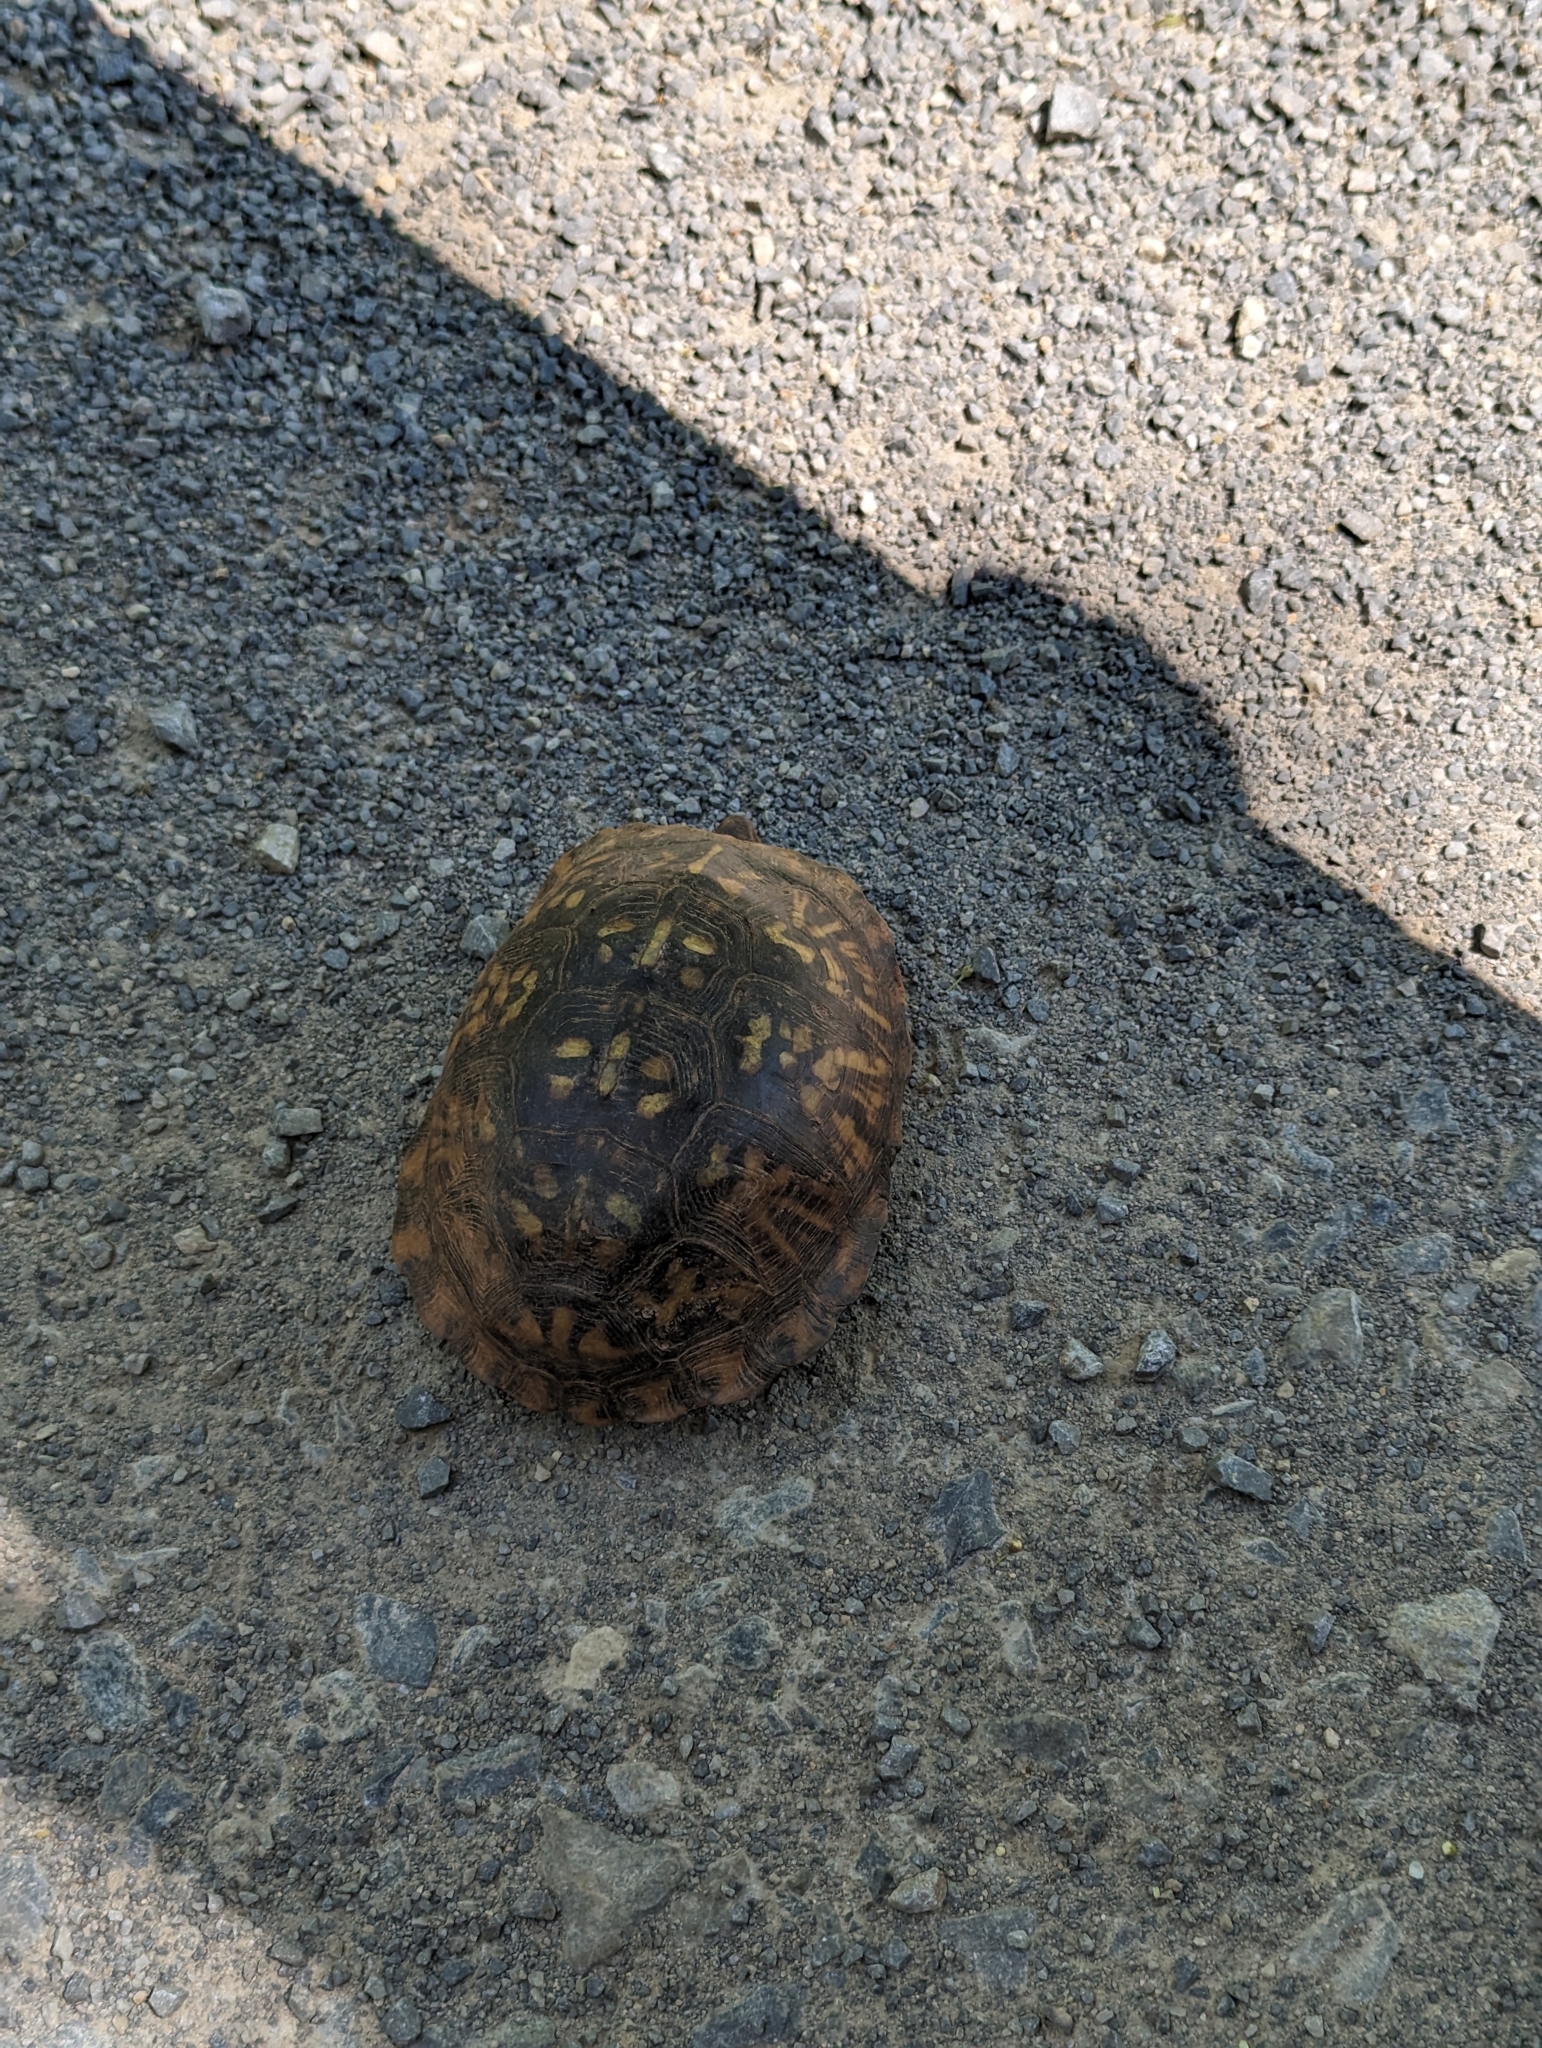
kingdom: Animalia
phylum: Chordata
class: Testudines
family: Emydidae
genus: Terrapene
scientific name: Terrapene carolina
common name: Common box turtle
